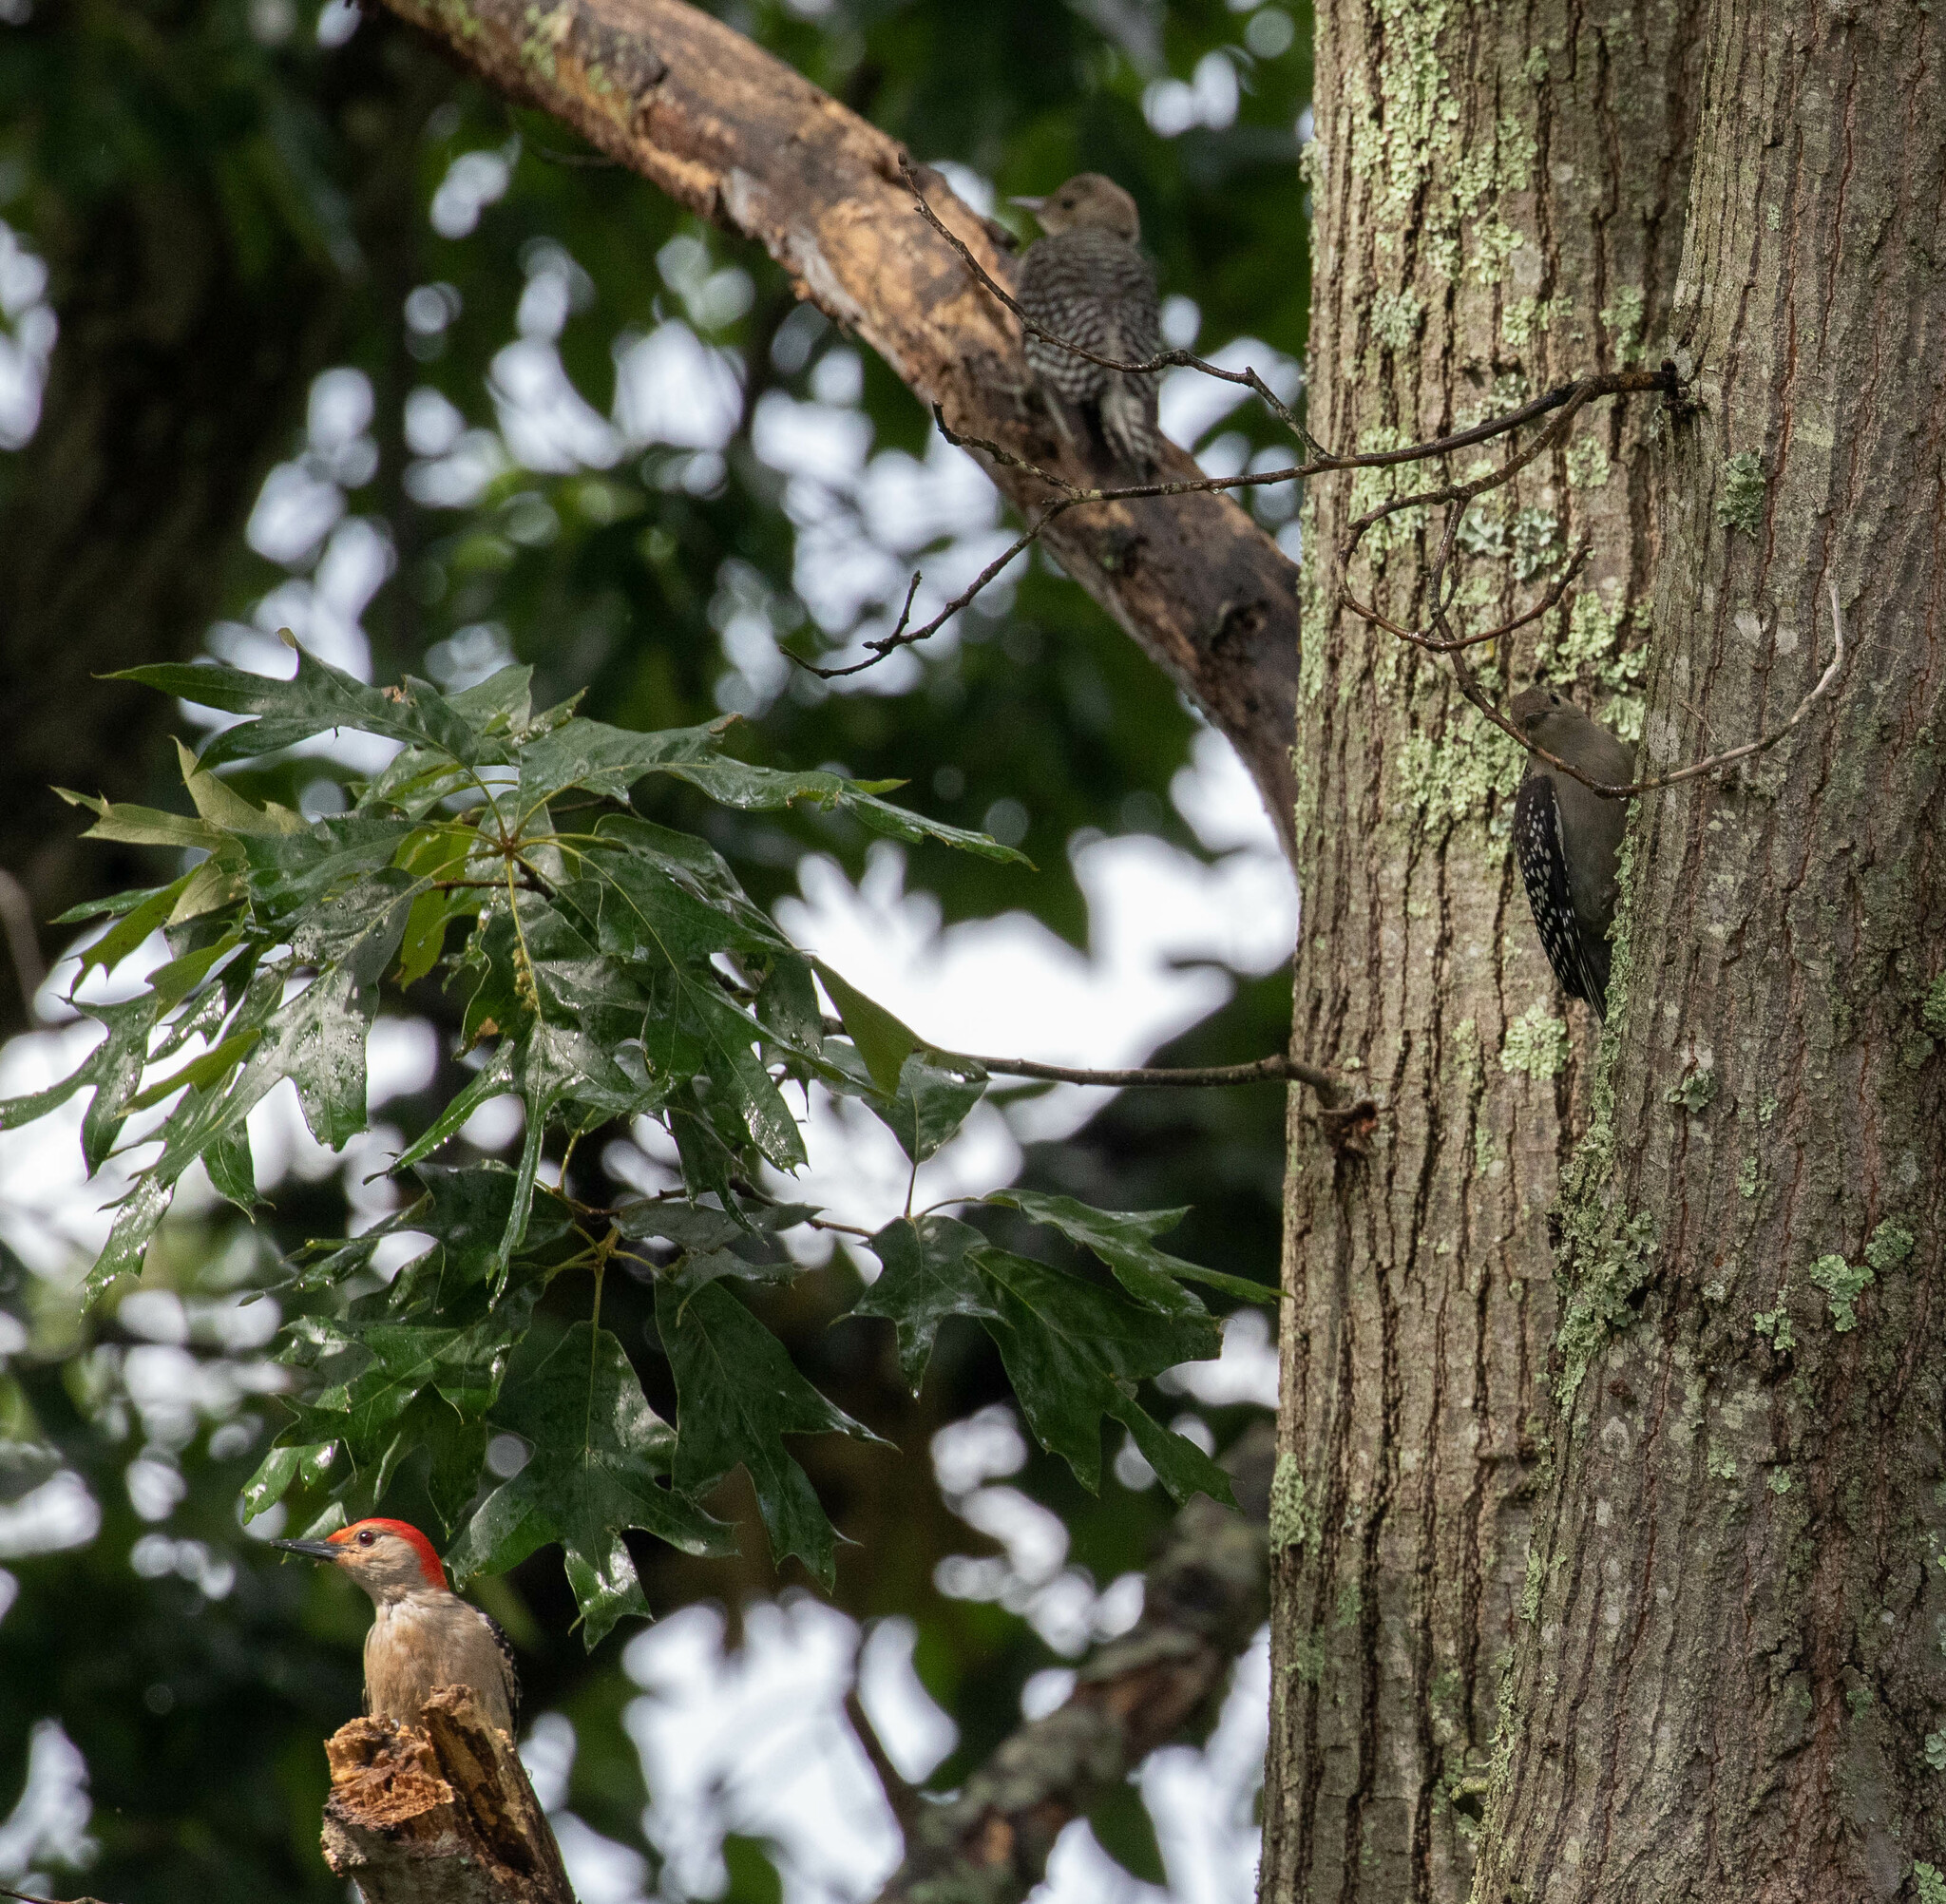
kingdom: Animalia
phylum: Chordata
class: Aves
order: Piciformes
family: Picidae
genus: Melanerpes
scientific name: Melanerpes carolinus
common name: Red-bellied woodpecker
